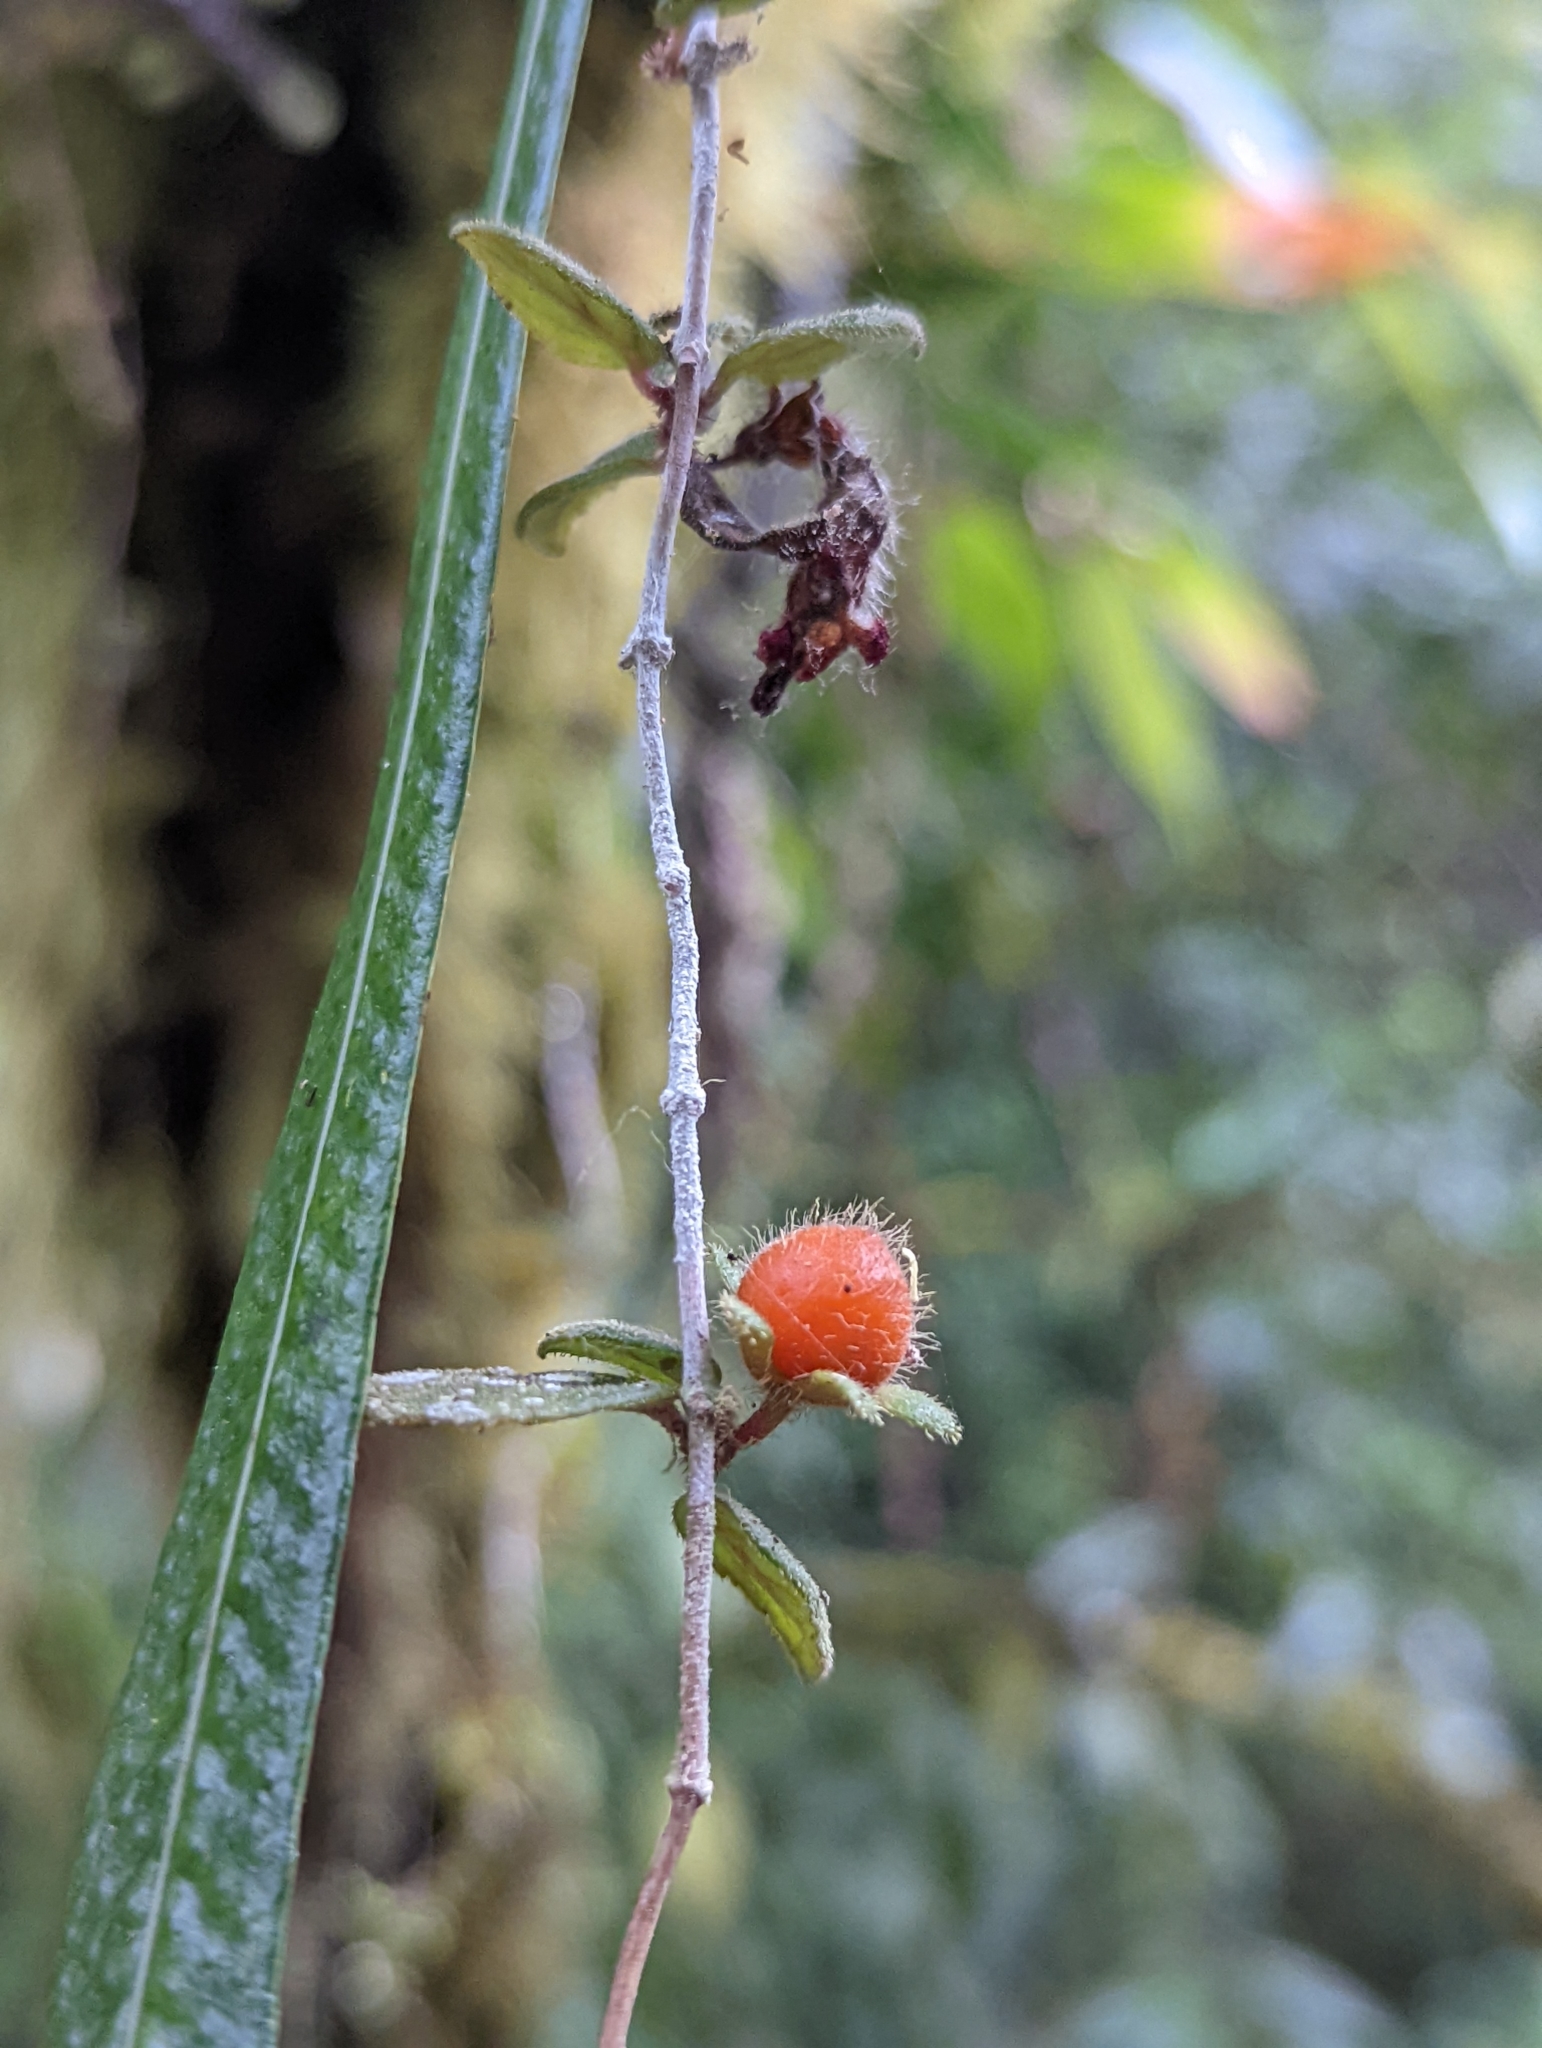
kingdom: Plantae
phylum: Tracheophyta
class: Magnoliopsida
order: Lamiales
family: Gesneriaceae
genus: Neomortonia
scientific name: Neomortonia rosea
